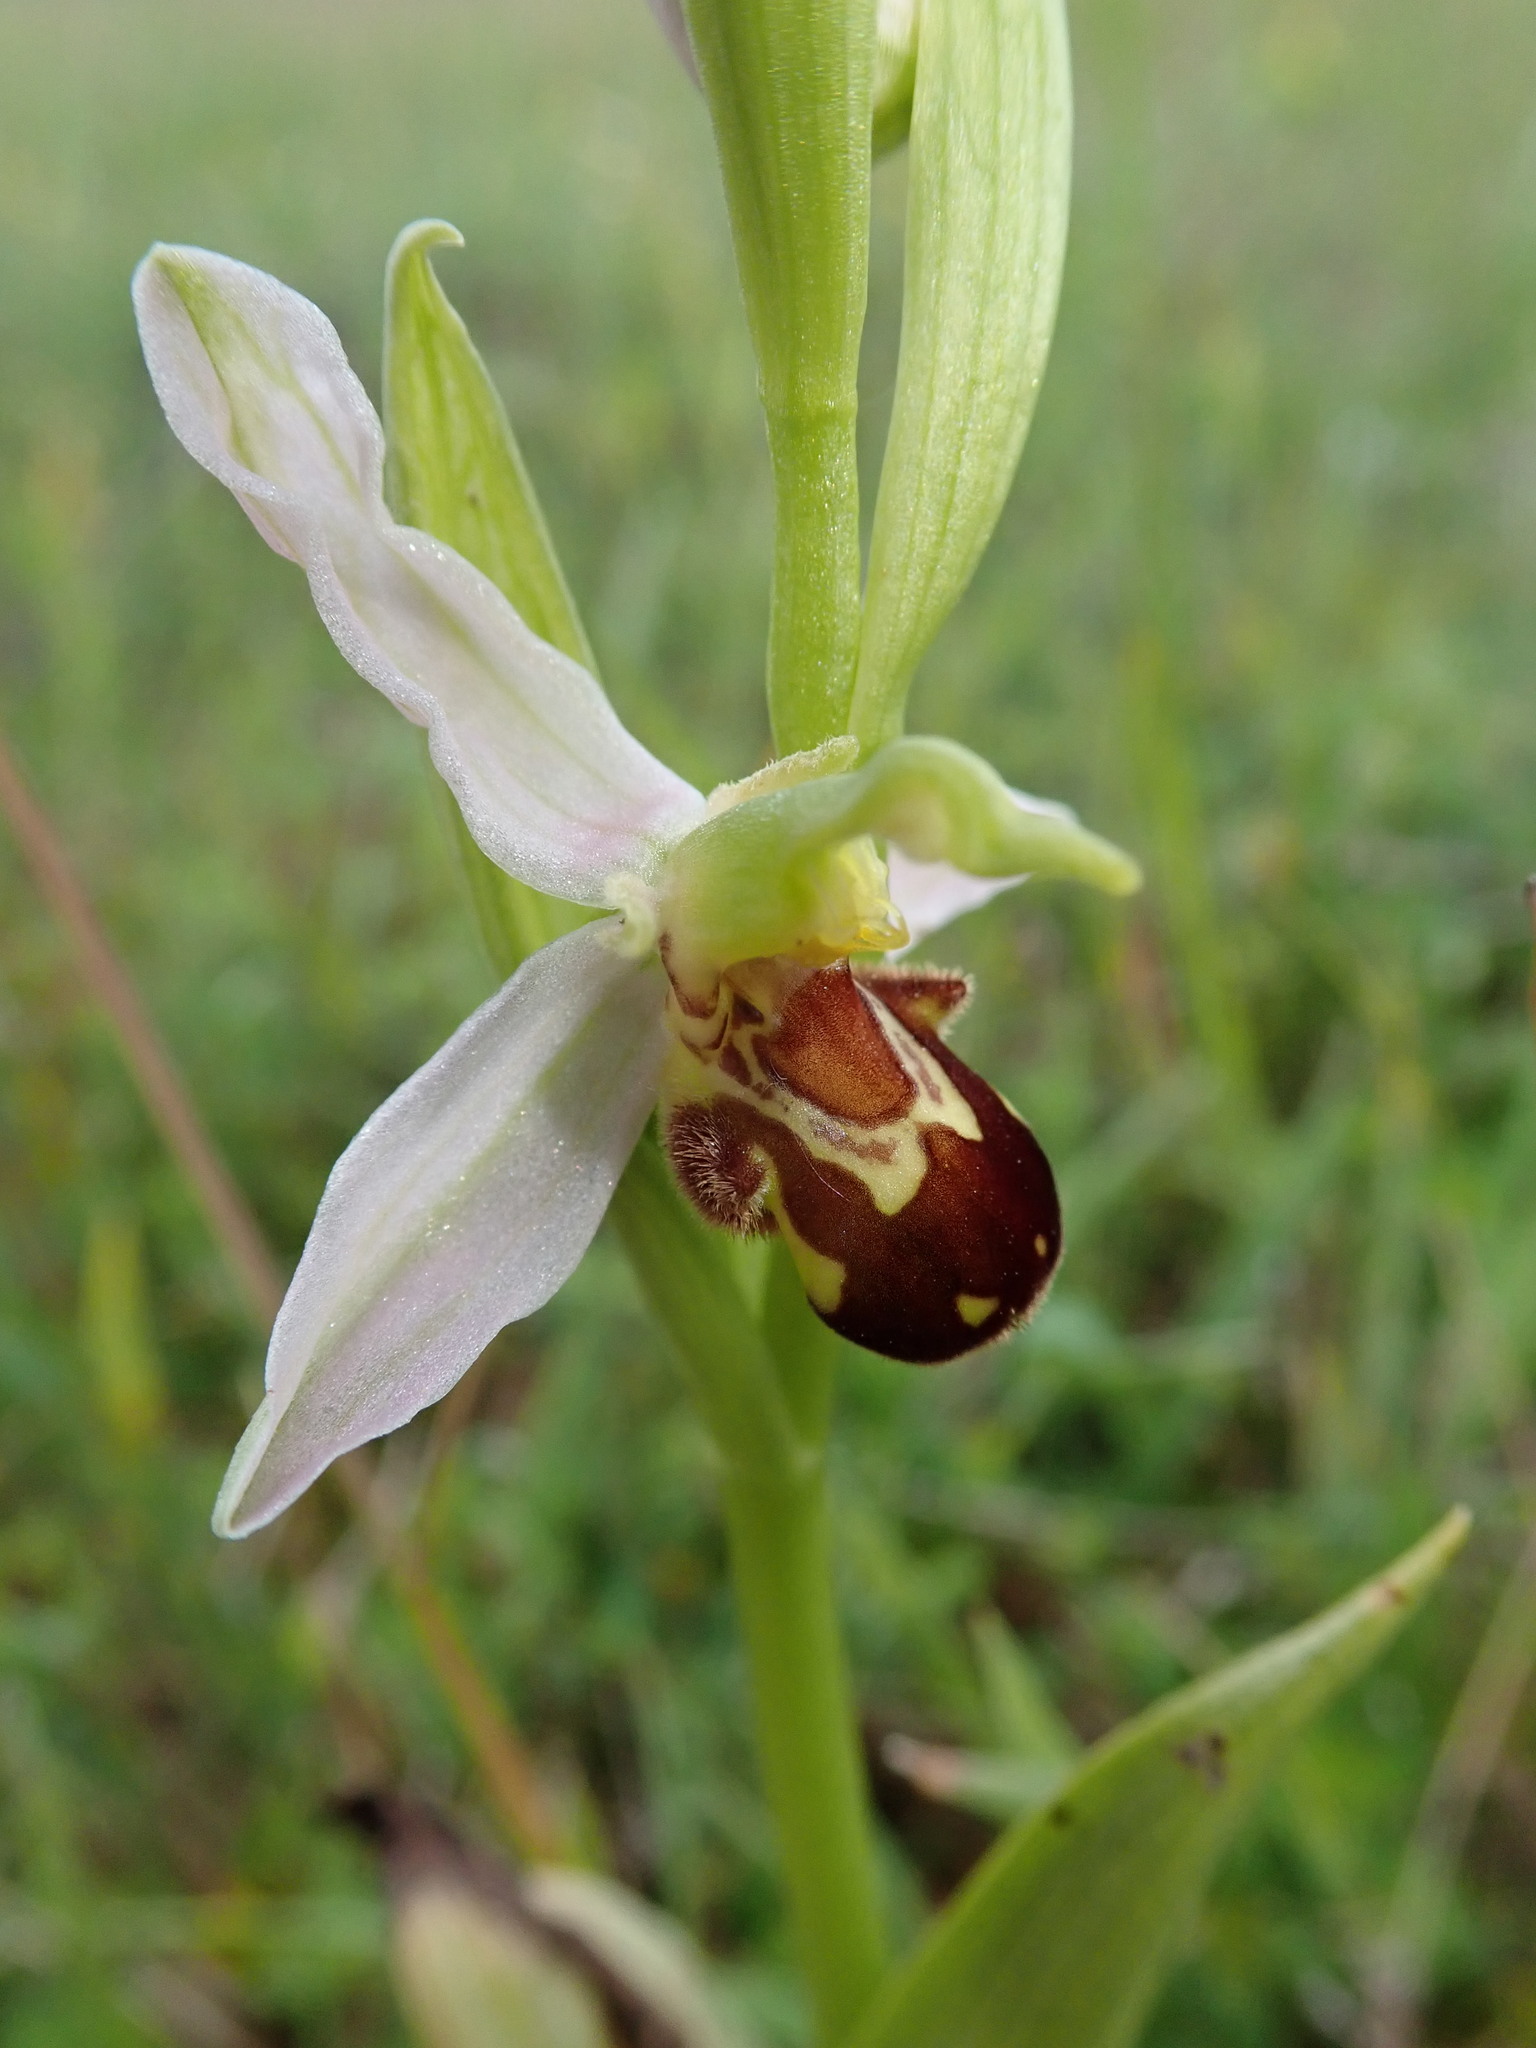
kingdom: Plantae
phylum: Tracheophyta
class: Liliopsida
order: Asparagales
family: Orchidaceae
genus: Ophrys
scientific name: Ophrys apifera
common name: Bee orchid
